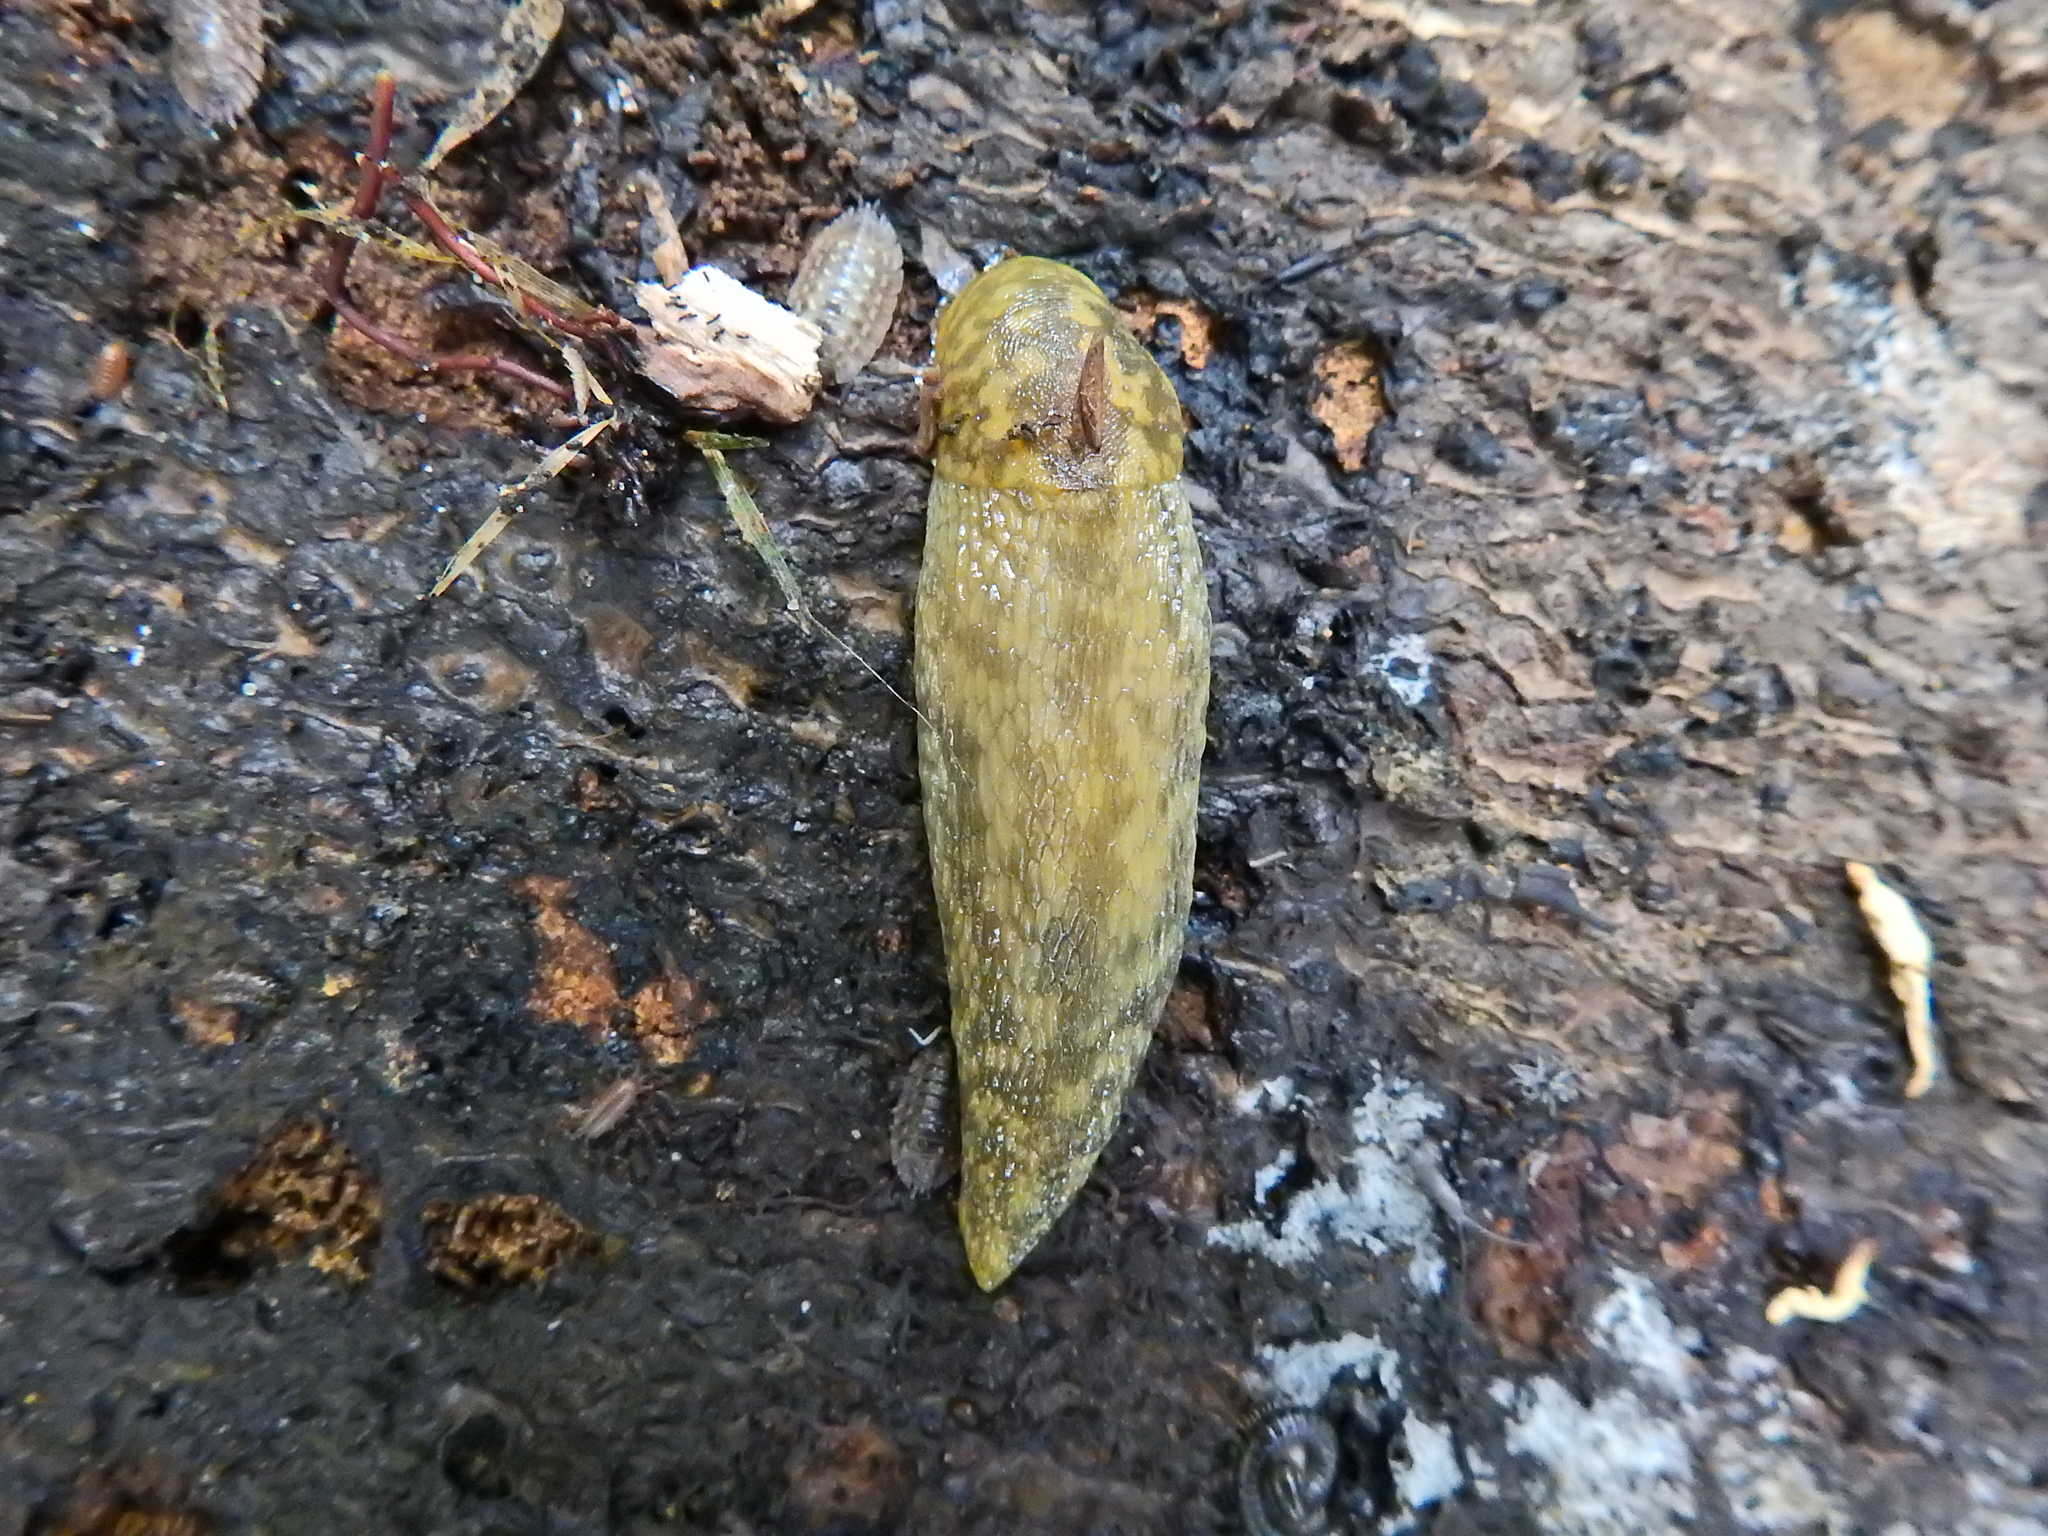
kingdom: Animalia
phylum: Mollusca
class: Gastropoda
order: Stylommatophora
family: Limacidae
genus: Limacus
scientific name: Limacus maculatus
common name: Irish yellow slug
